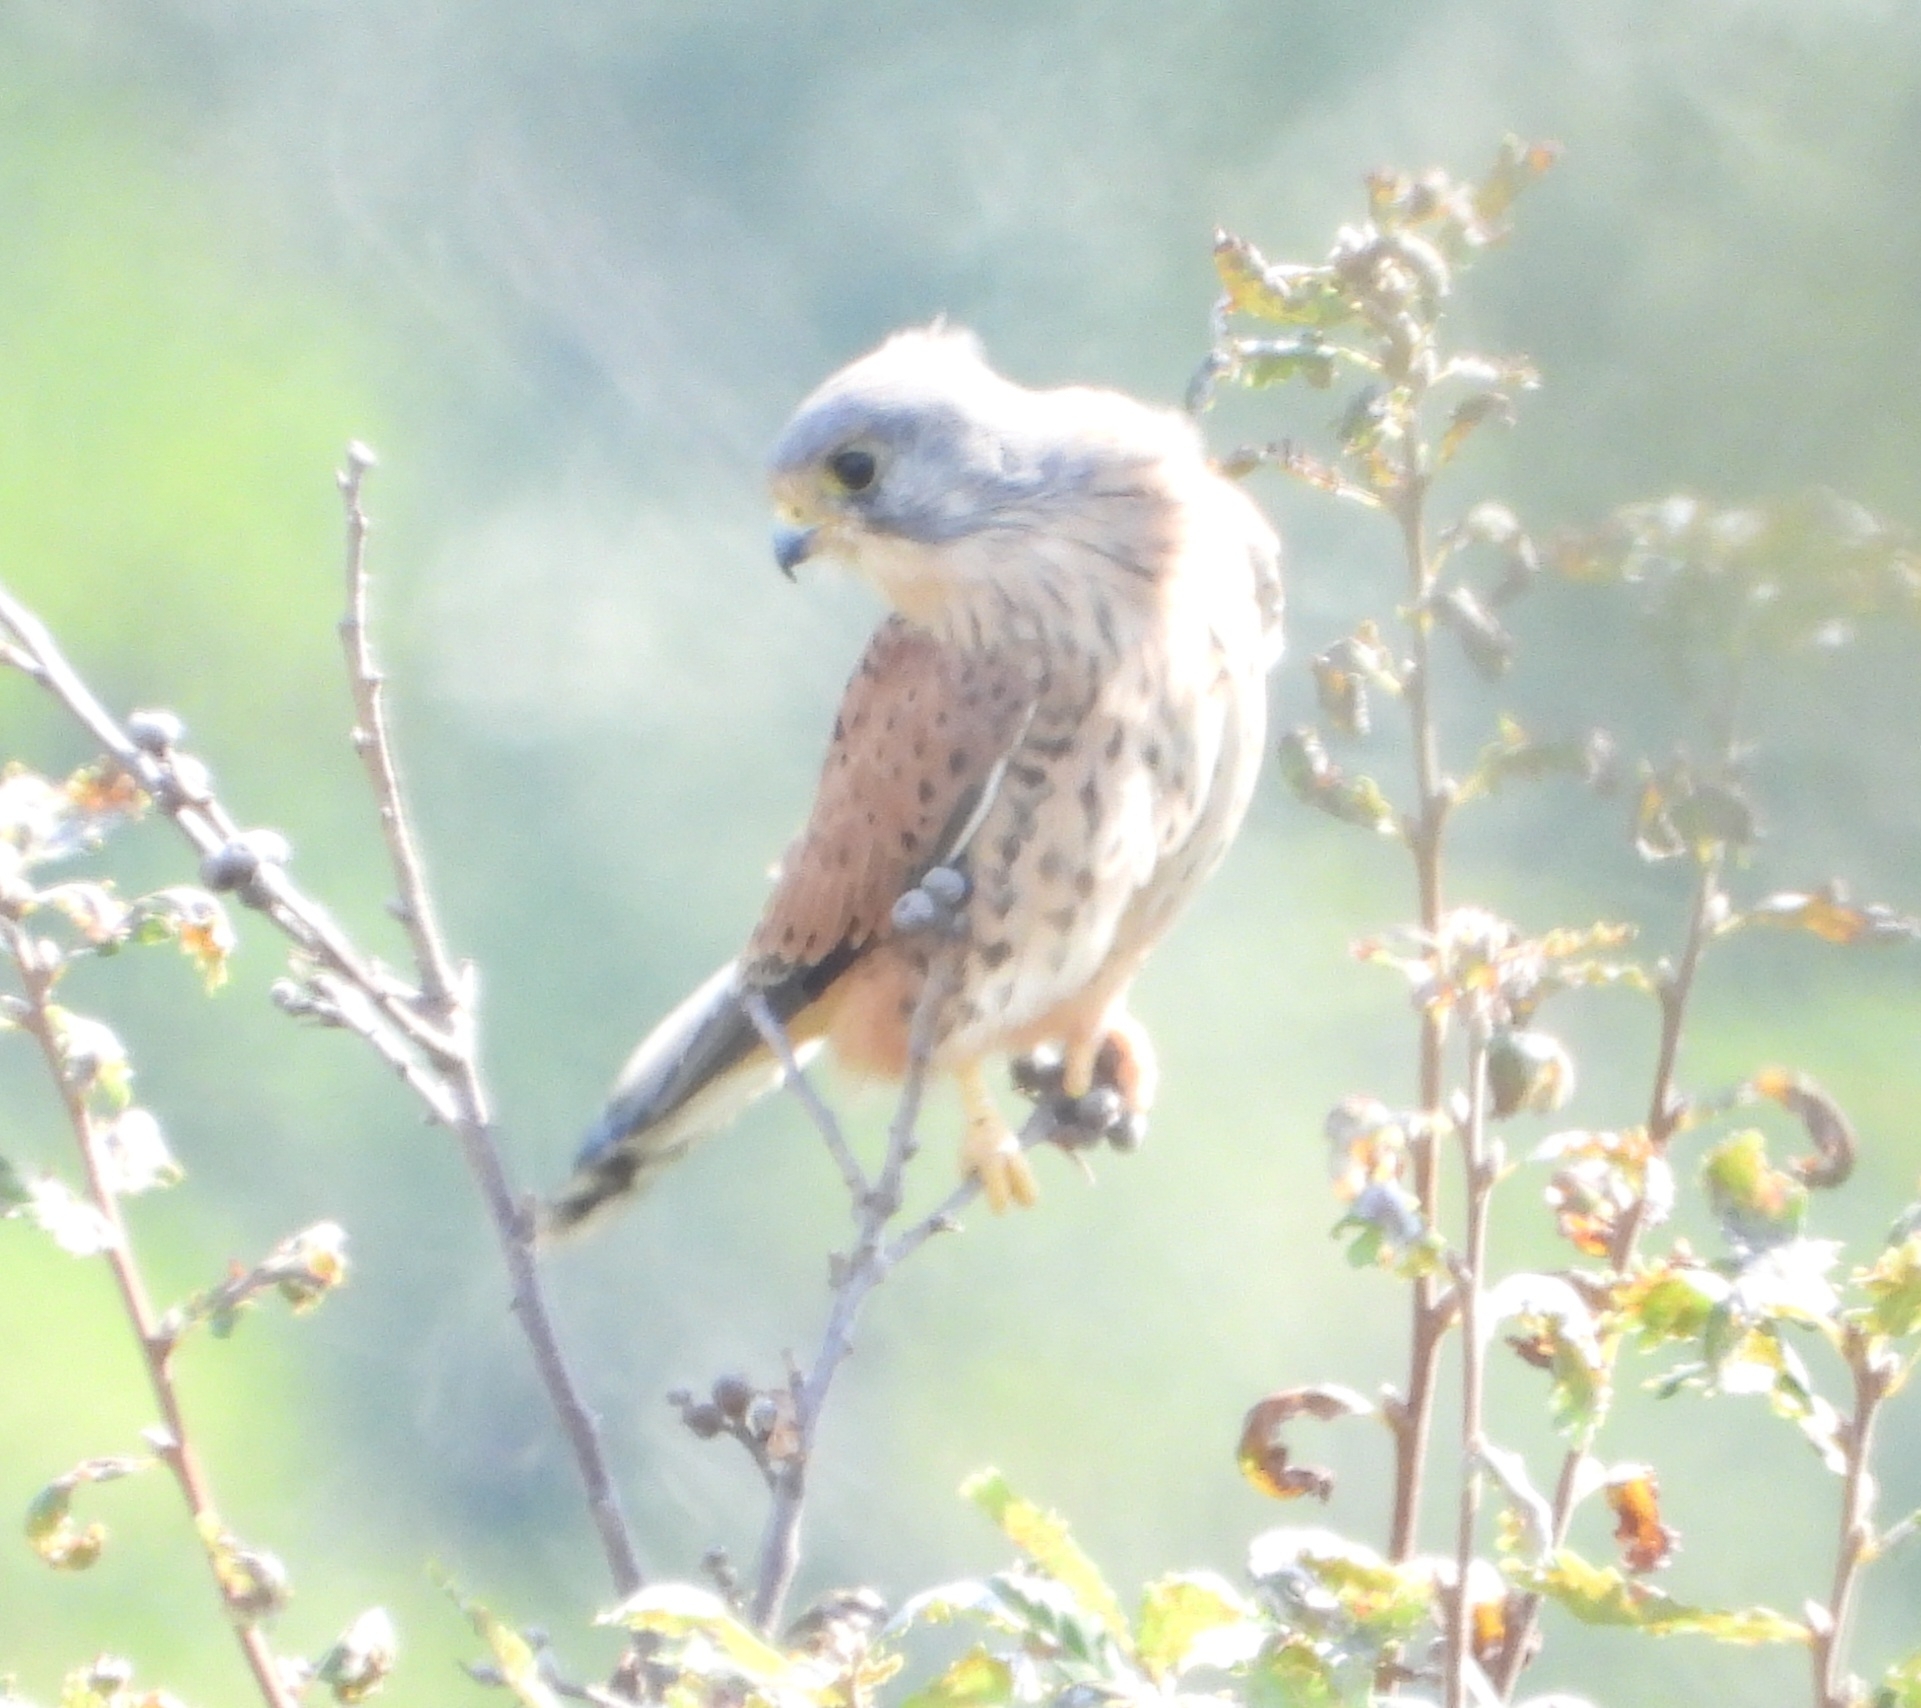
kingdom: Animalia
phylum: Chordata
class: Aves
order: Falconiformes
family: Falconidae
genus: Falco
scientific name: Falco tinnunculus
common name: Common kestrel
